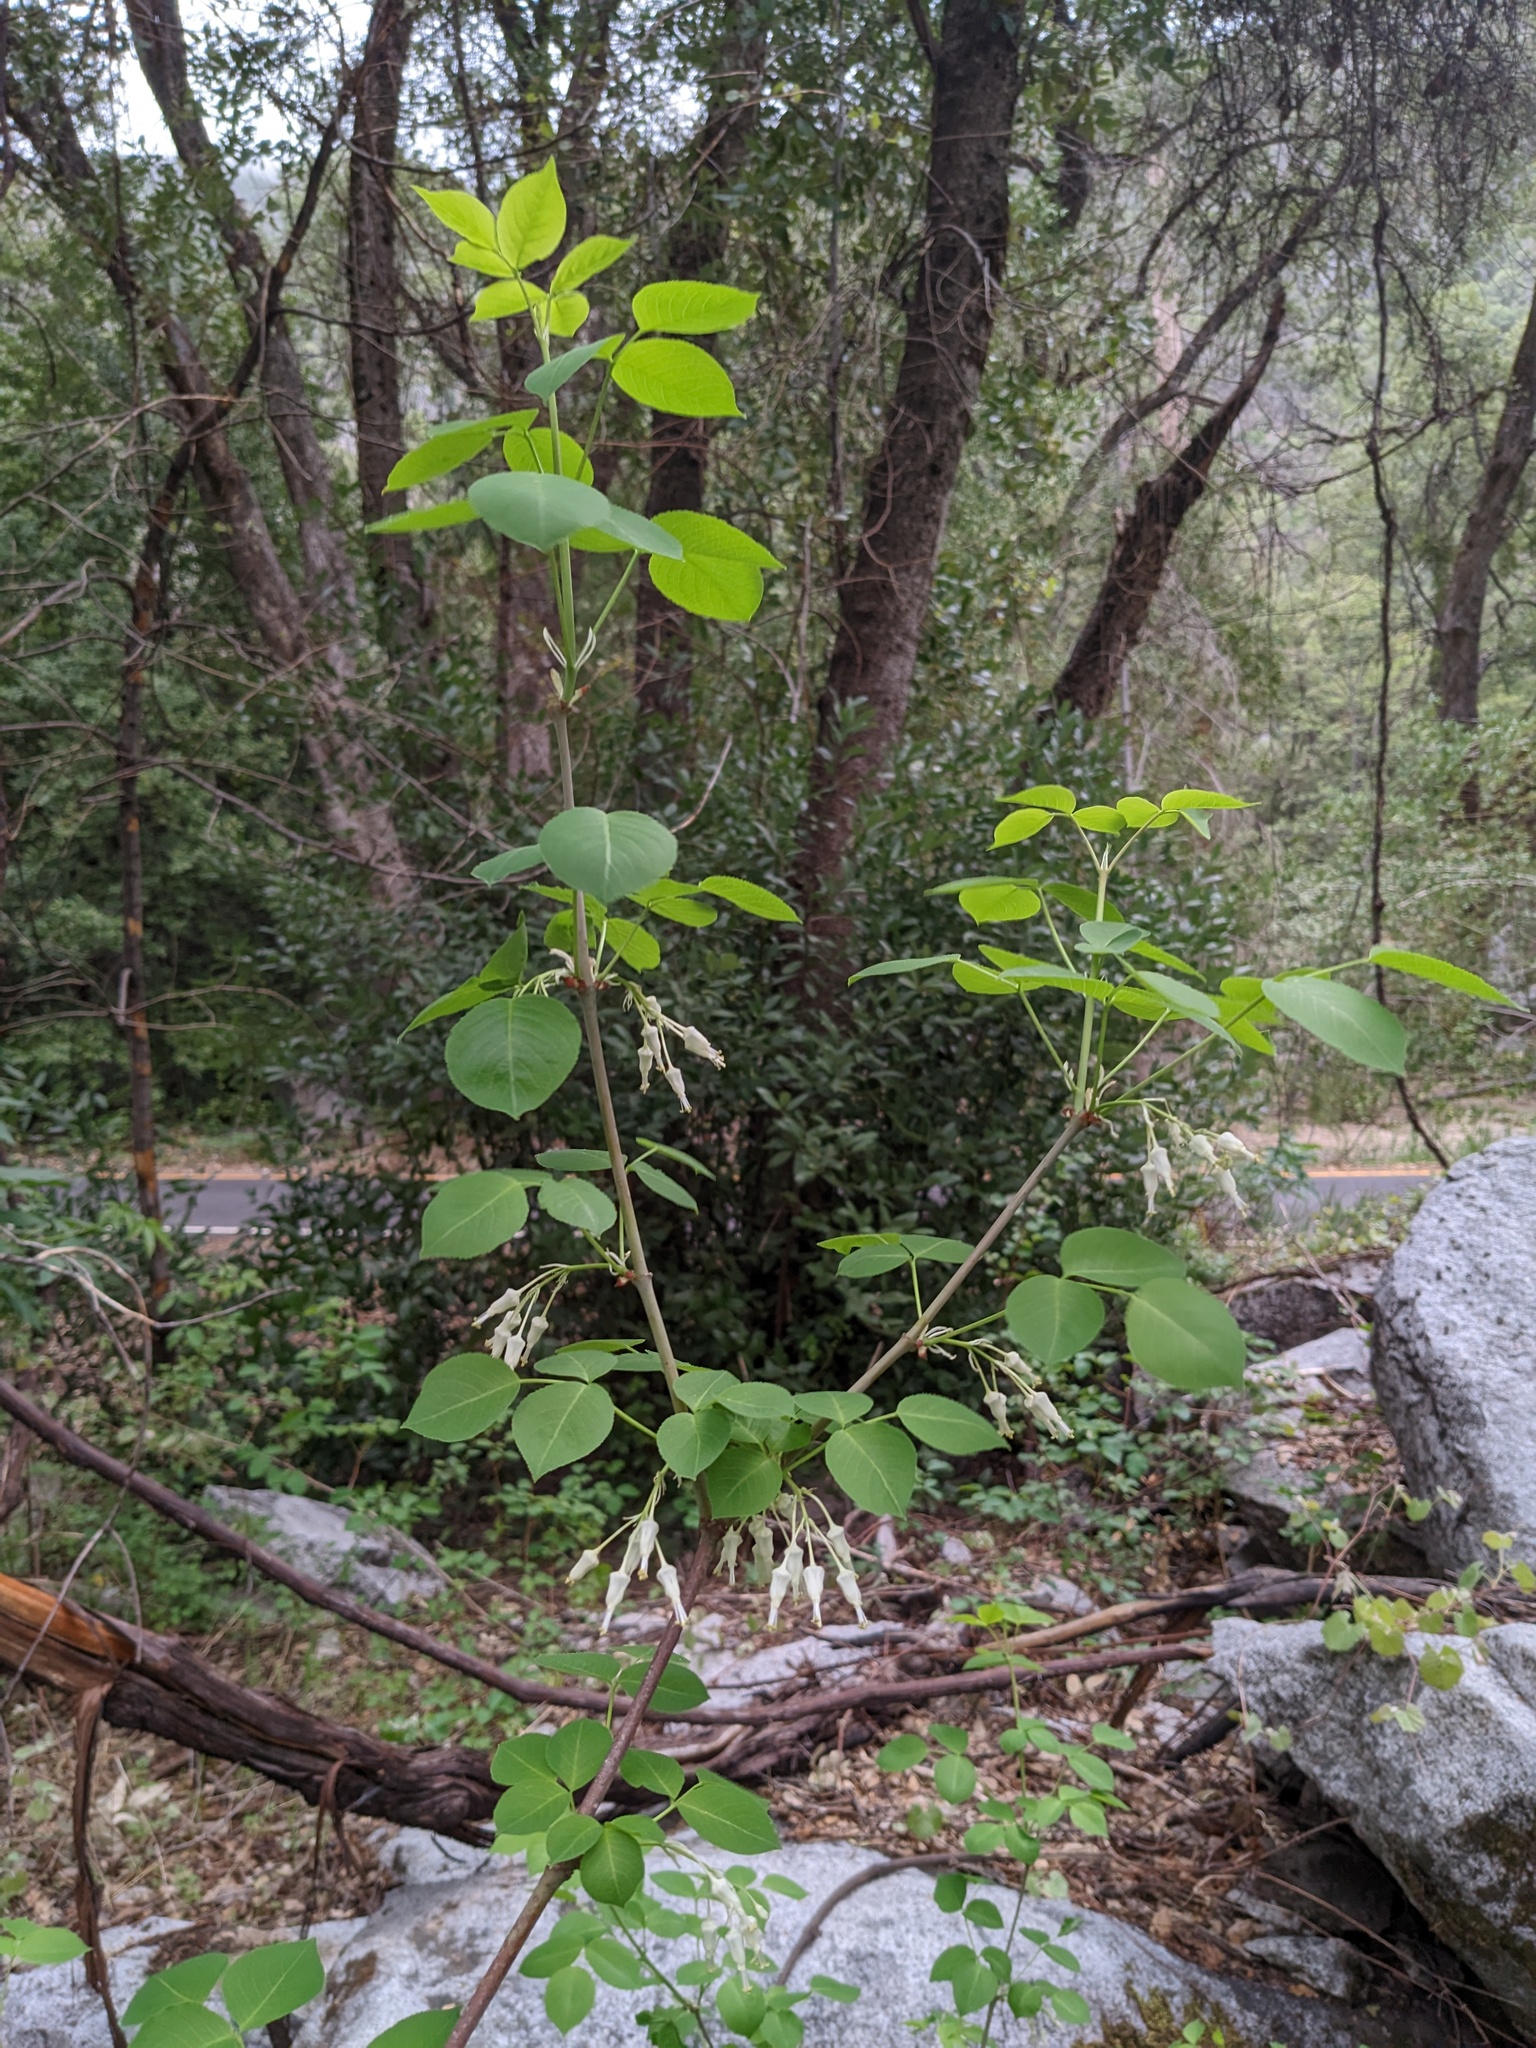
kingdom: Plantae
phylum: Tracheophyta
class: Magnoliopsida
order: Crossosomatales
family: Staphyleaceae
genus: Staphylea
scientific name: Staphylea bolanderi
